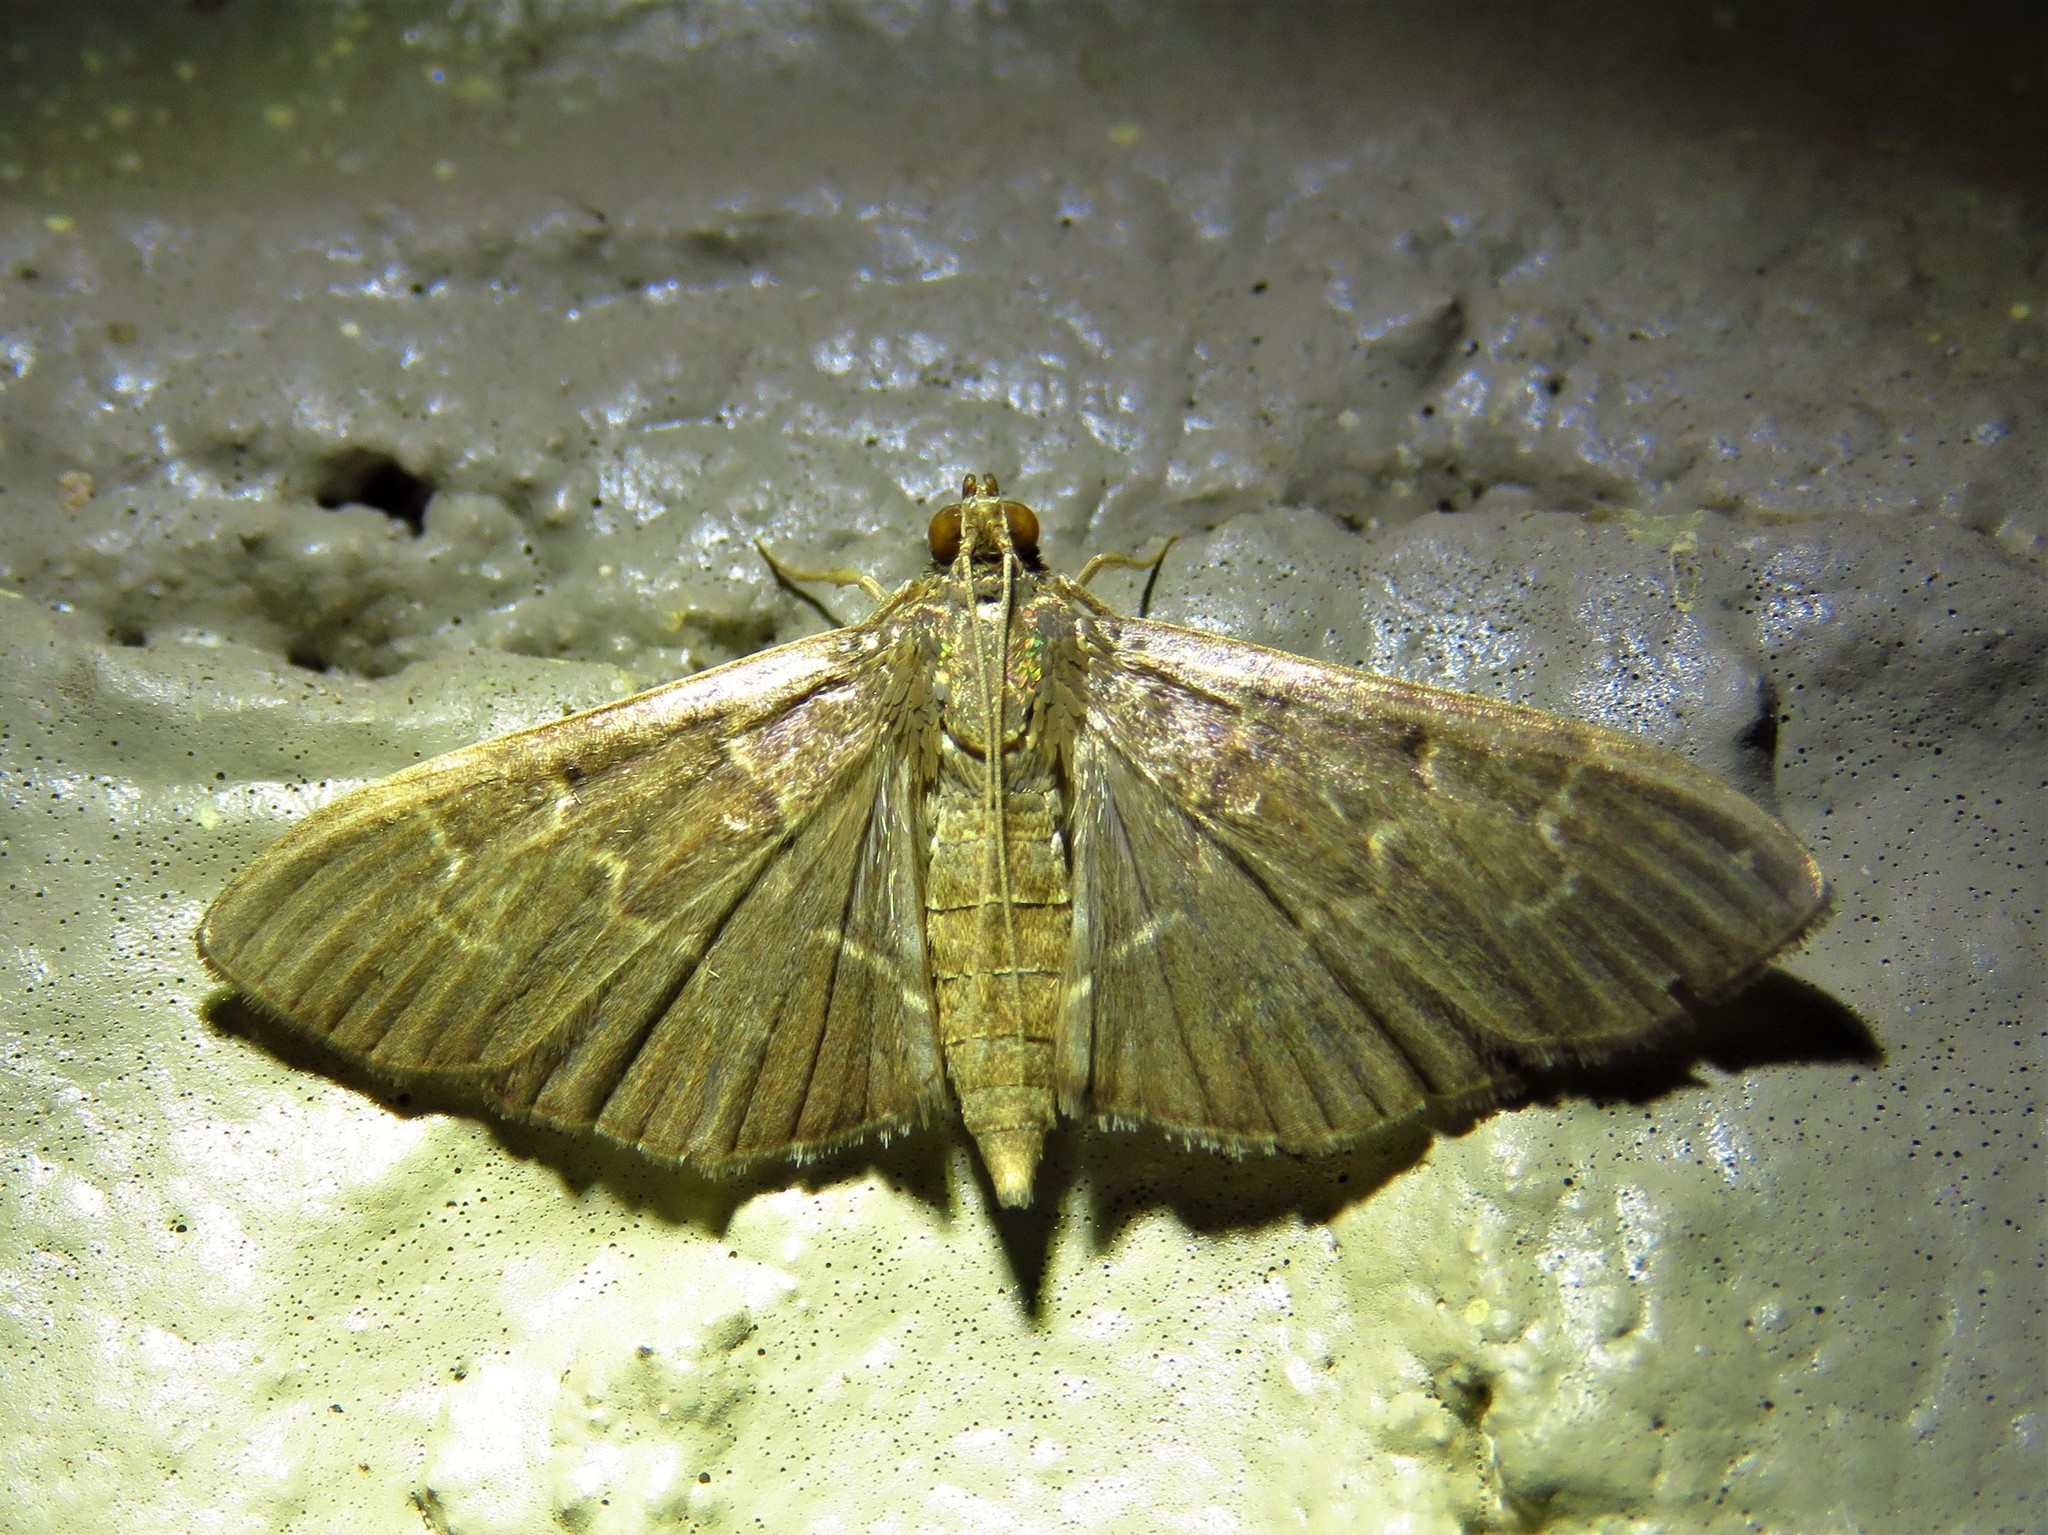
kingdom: Animalia
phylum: Arthropoda
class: Insecta
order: Lepidoptera
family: Crambidae
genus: Pilocrocis
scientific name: Pilocrocis ramentalis
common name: Scraped pilocrocis
